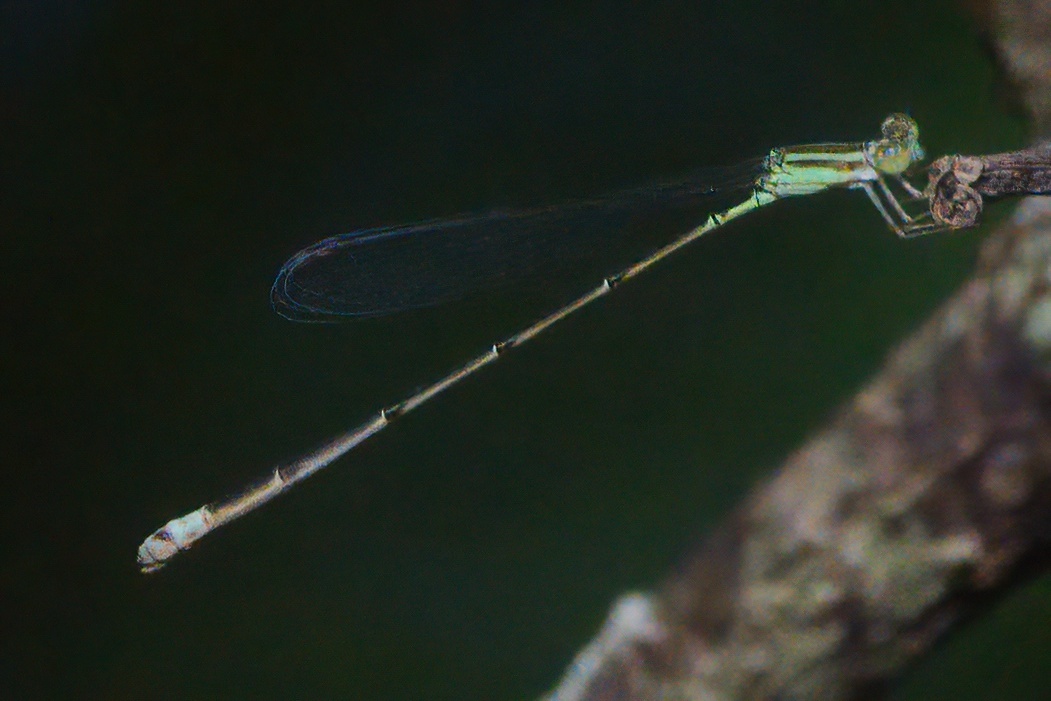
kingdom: Animalia
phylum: Arthropoda
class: Insecta
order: Odonata
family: Coenagrionidae
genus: Leptobasis
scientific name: Leptobasis lucifer
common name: Lucifer swampdamsel
